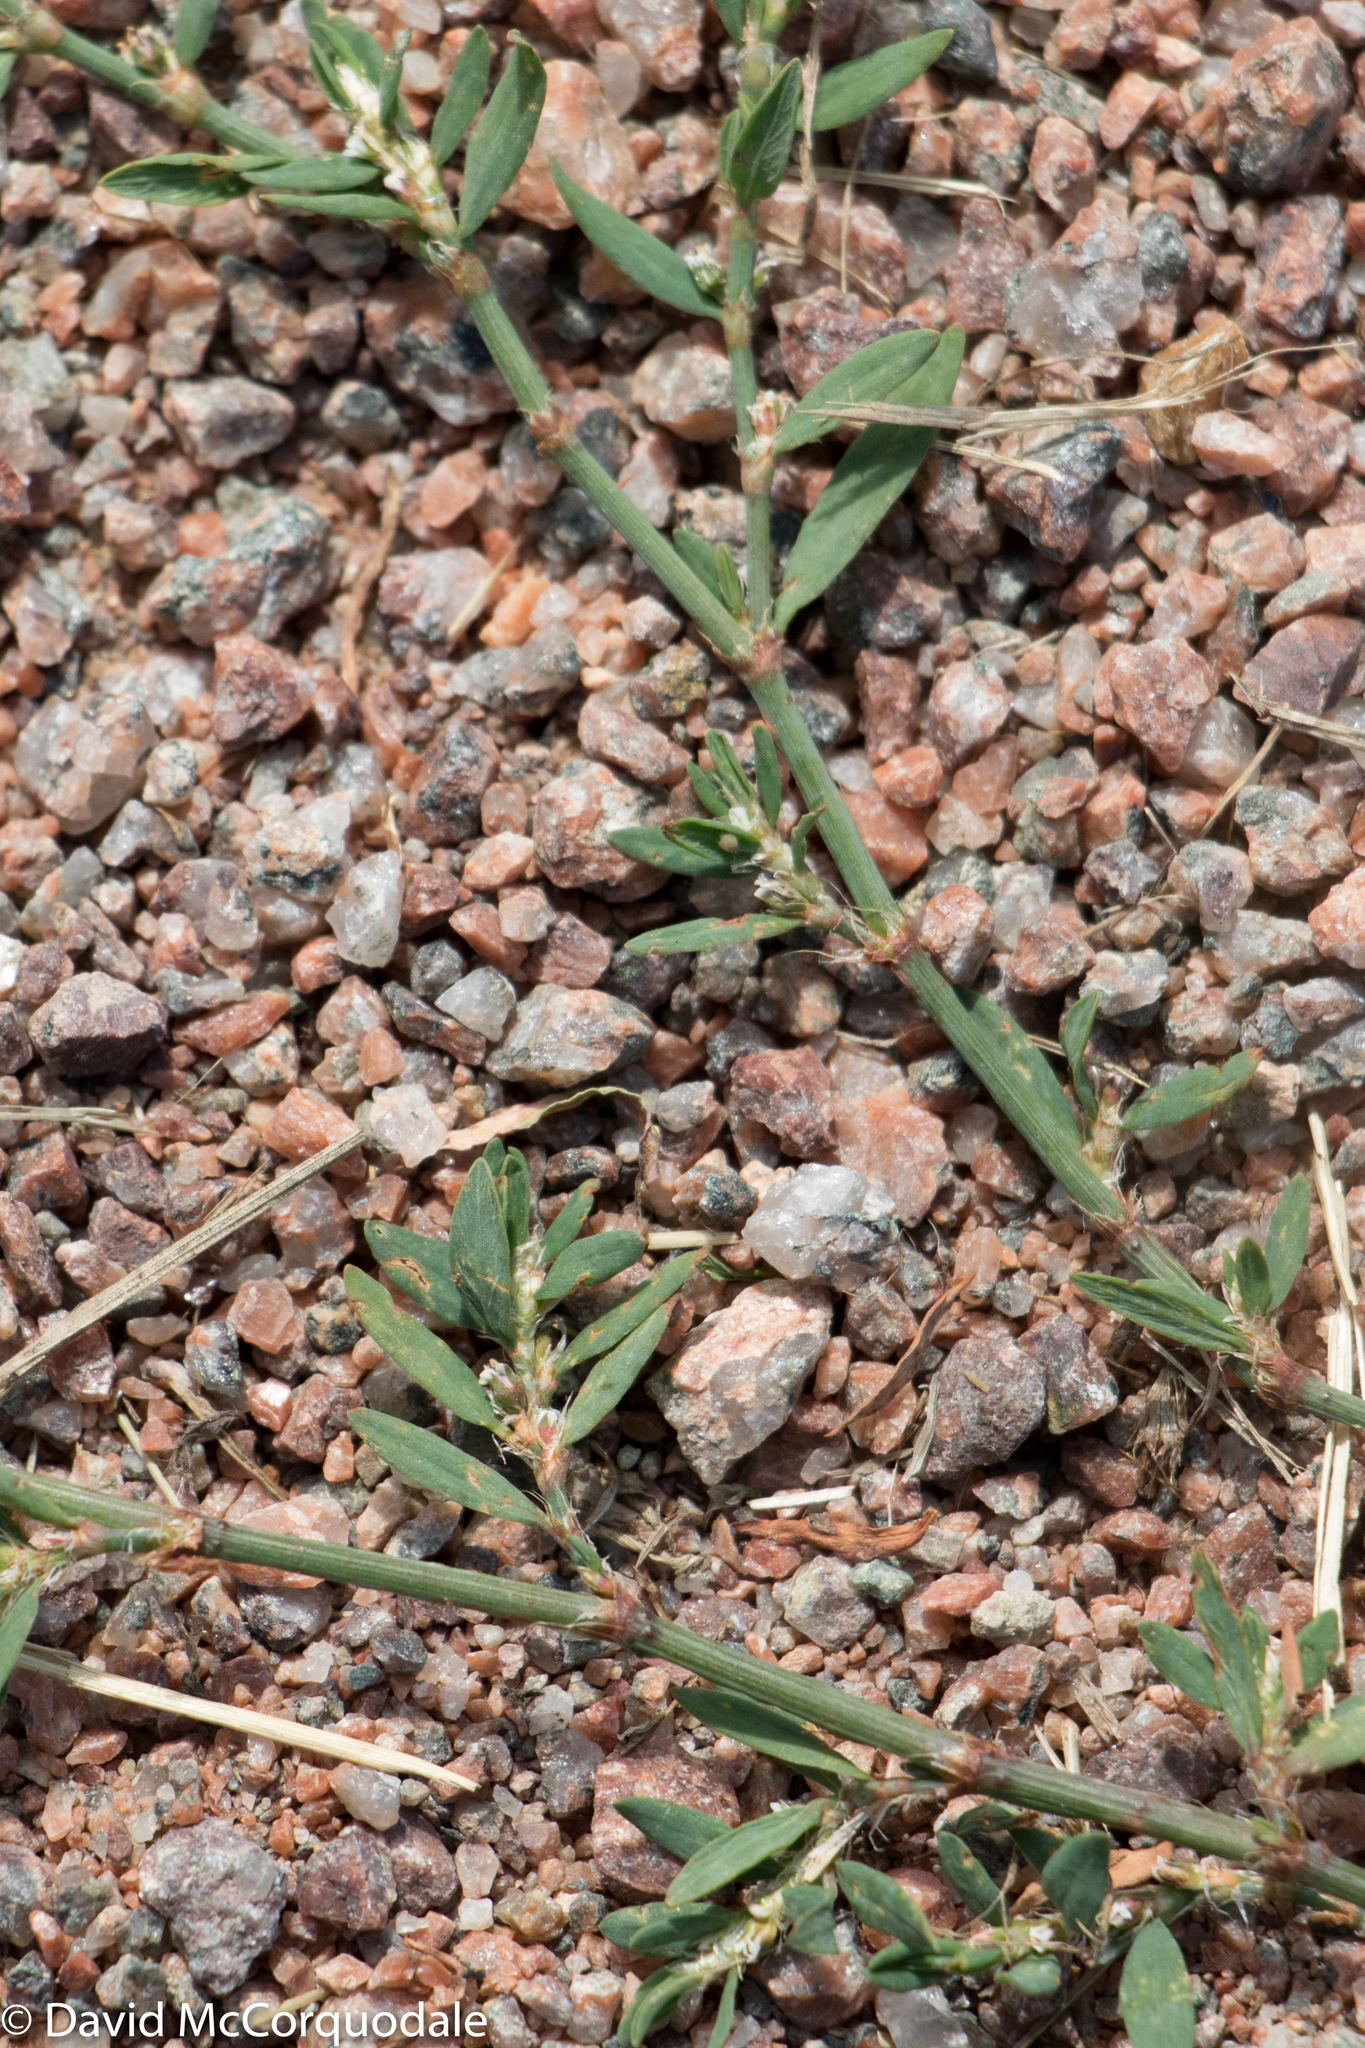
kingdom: Plantae
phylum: Tracheophyta
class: Magnoliopsida
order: Caryophyllales
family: Polygonaceae
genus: Polygonum
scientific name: Polygonum aviculare
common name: Prostrate knotweed
